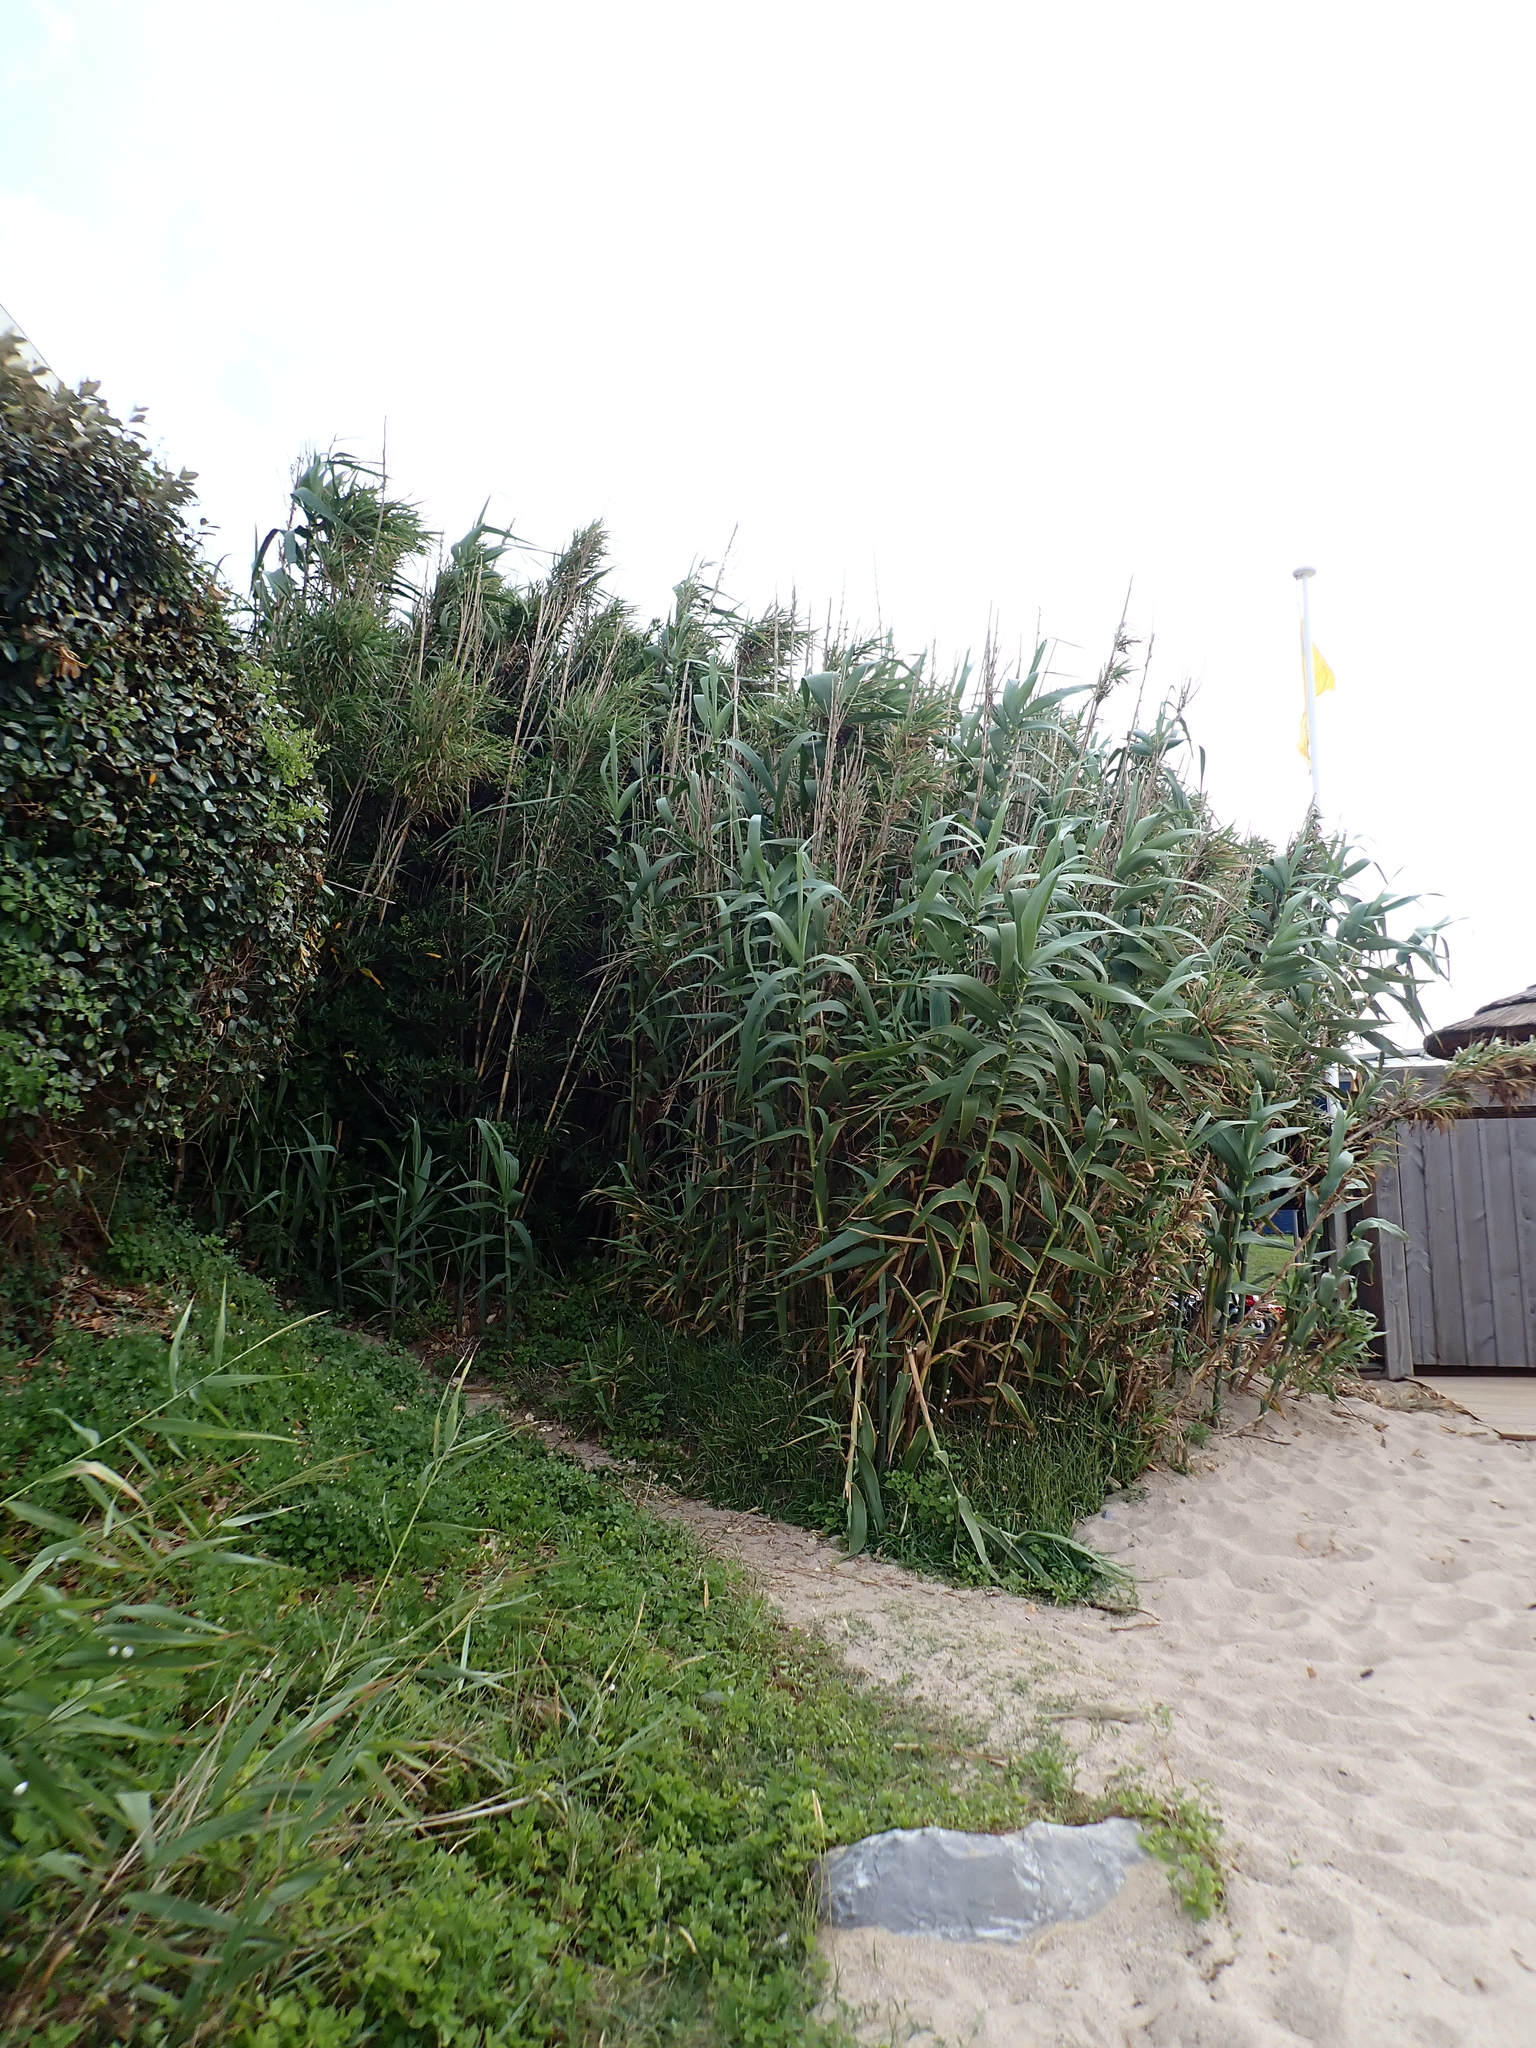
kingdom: Plantae
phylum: Tracheophyta
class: Liliopsida
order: Poales
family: Poaceae
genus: Arundo
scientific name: Arundo donax
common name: Giant reed
